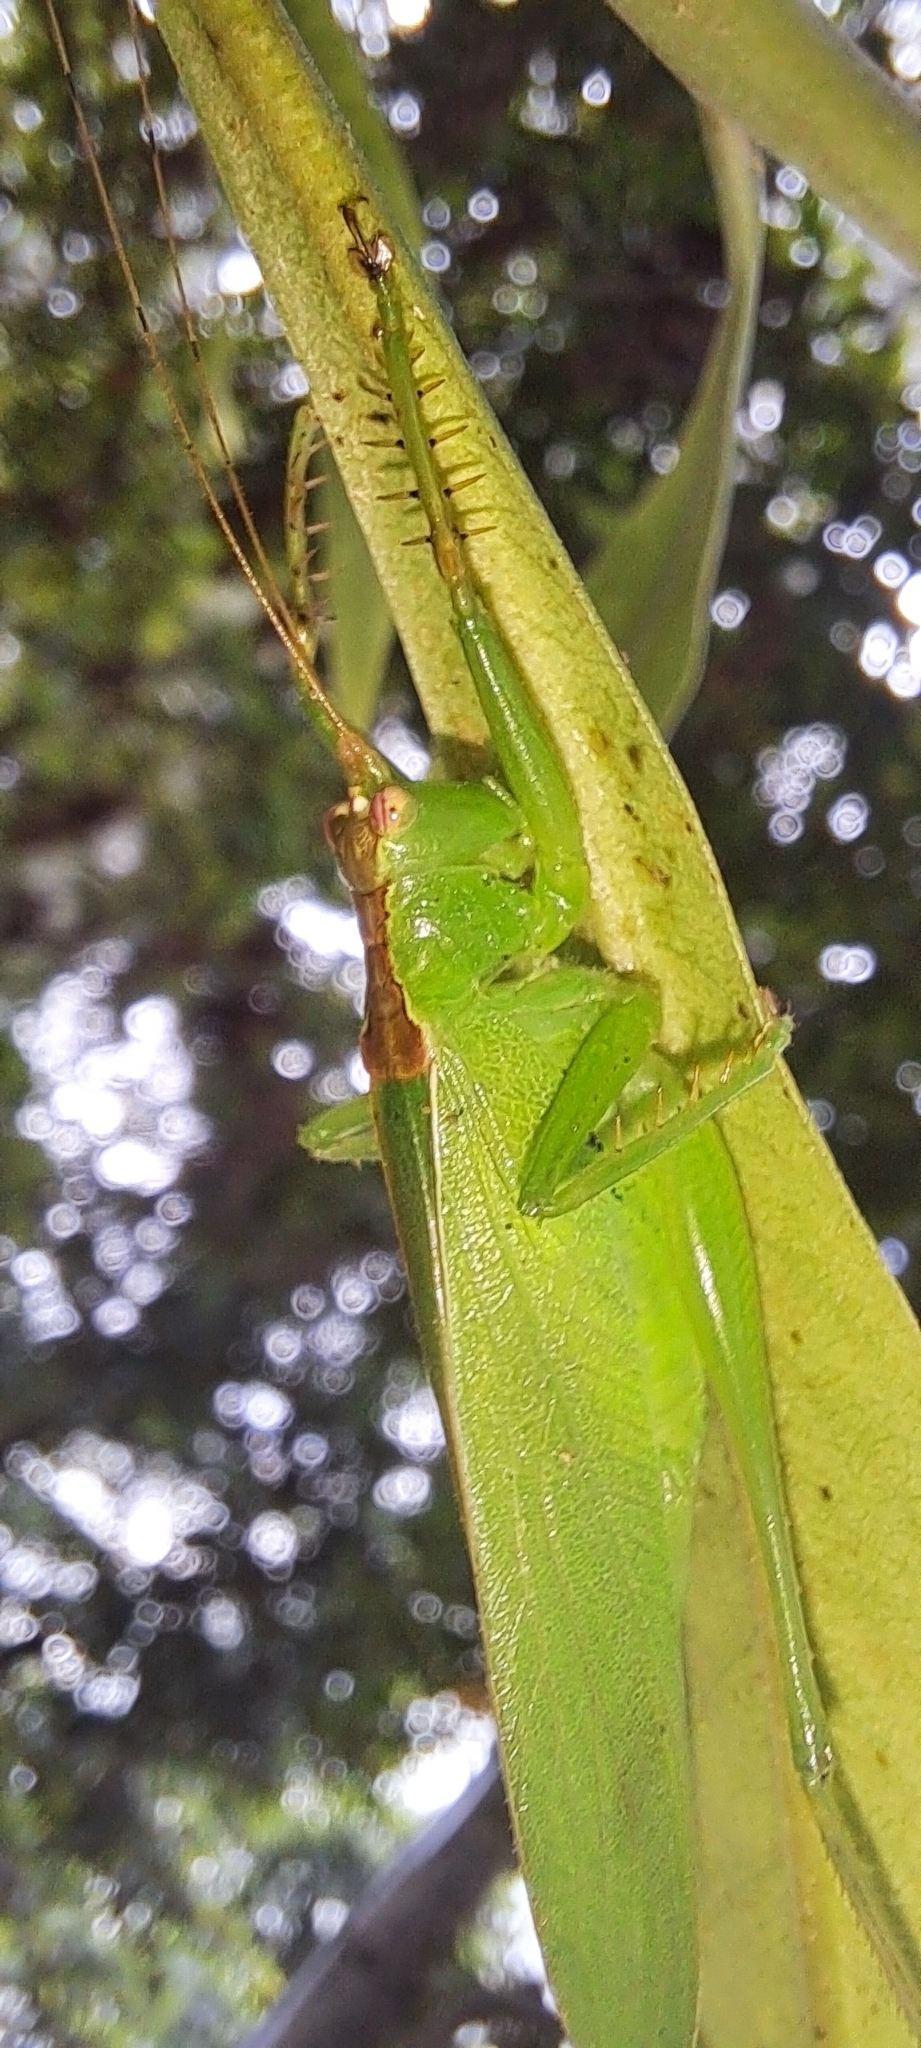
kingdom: Animalia
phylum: Arthropoda
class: Insecta
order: Orthoptera
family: Tettigoniidae
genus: Hexacentrus
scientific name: Hexacentrus unicolor
